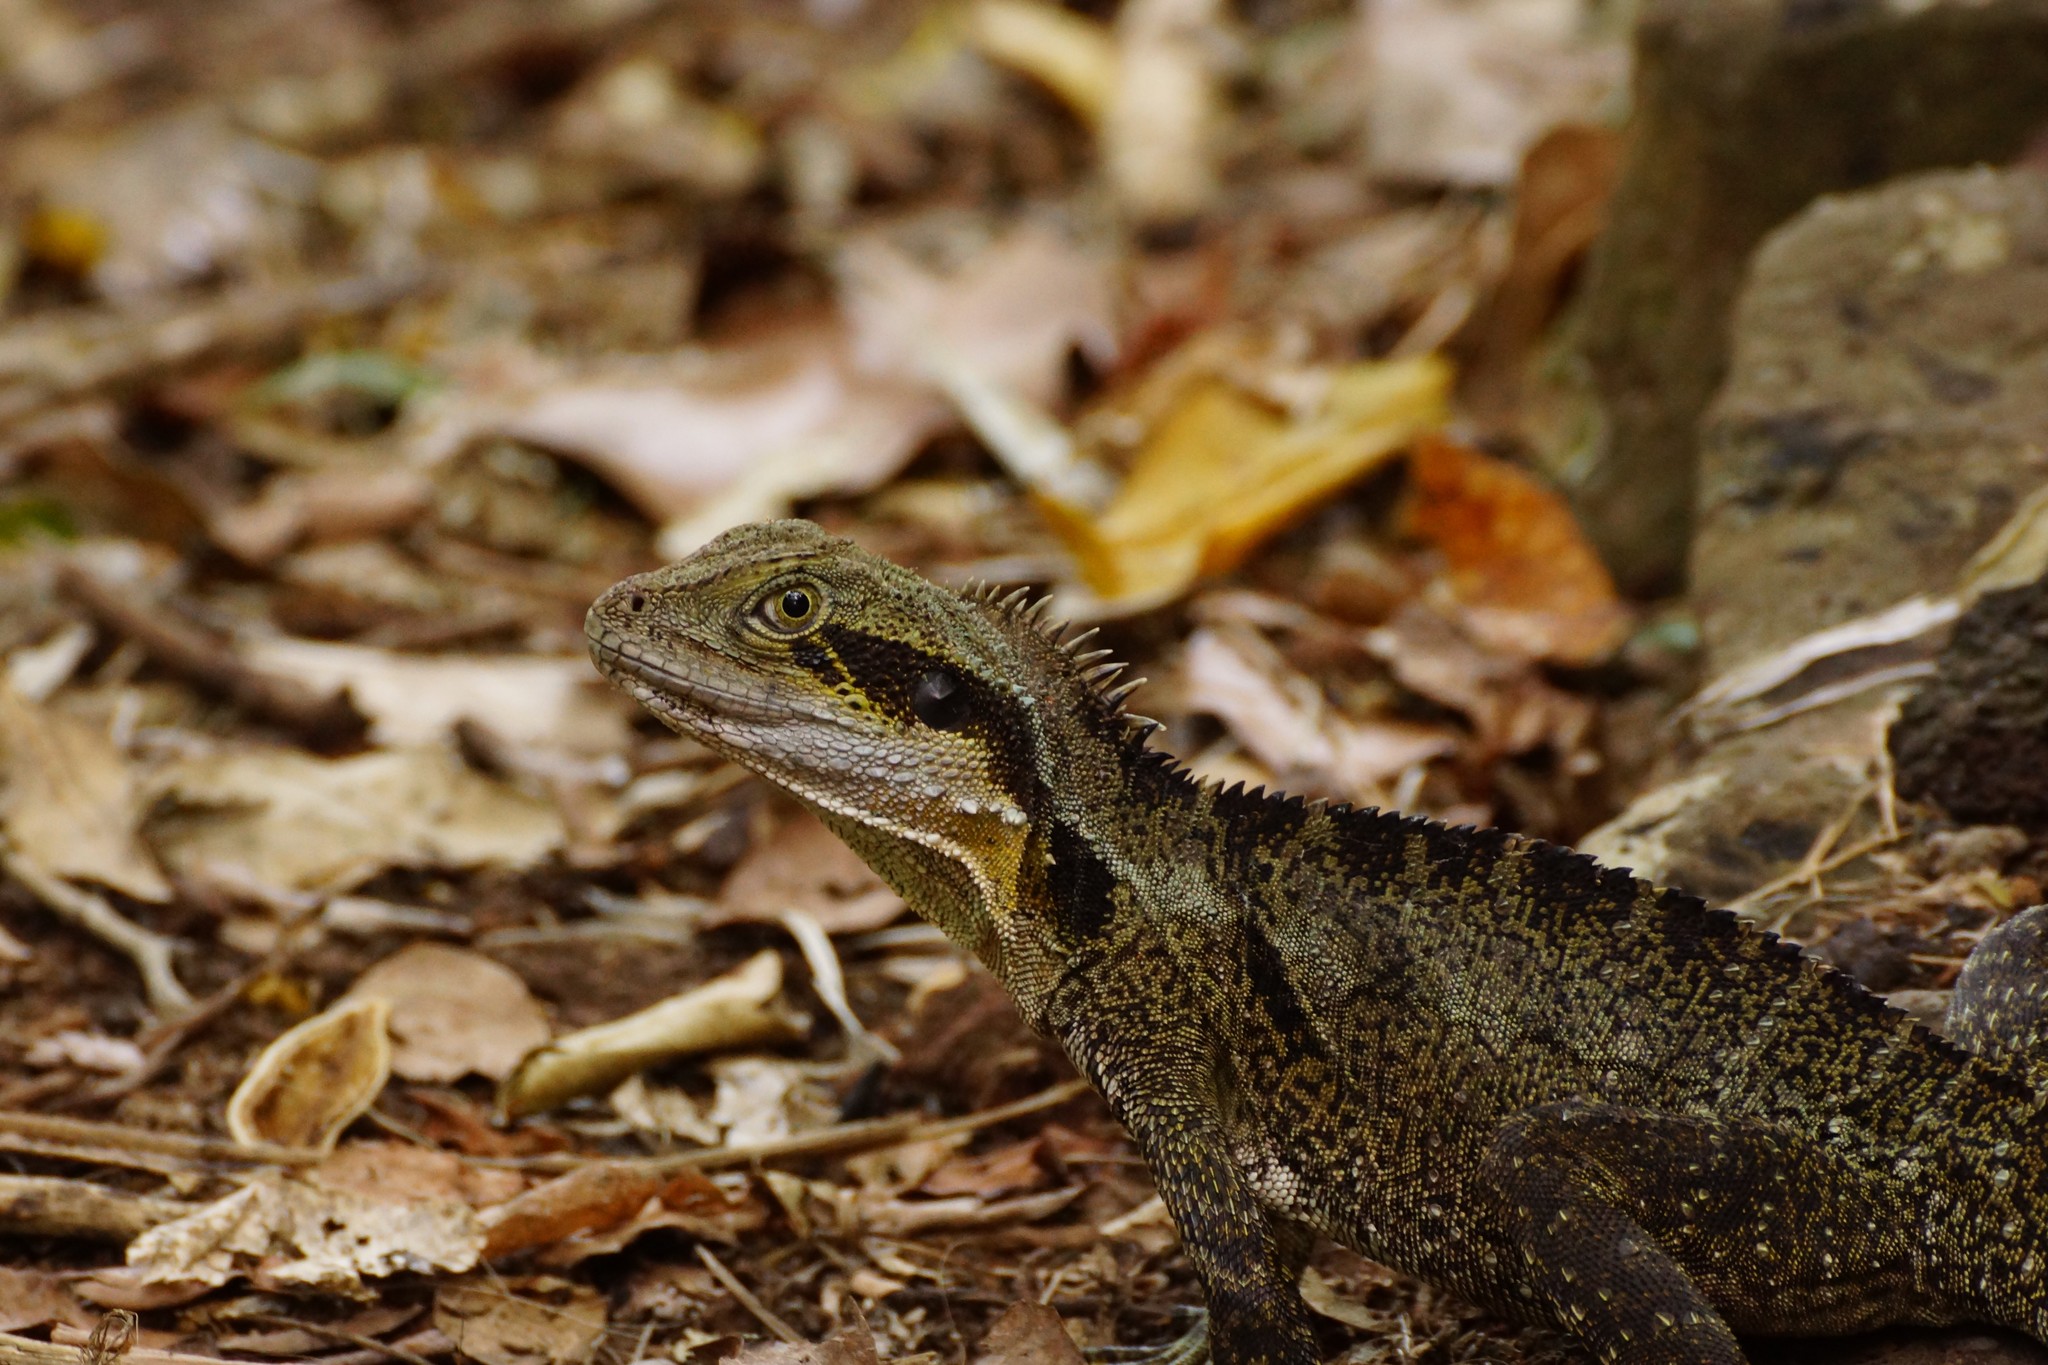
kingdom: Animalia
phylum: Chordata
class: Squamata
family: Agamidae
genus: Intellagama
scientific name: Intellagama lesueurii
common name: Eastern water dragon
